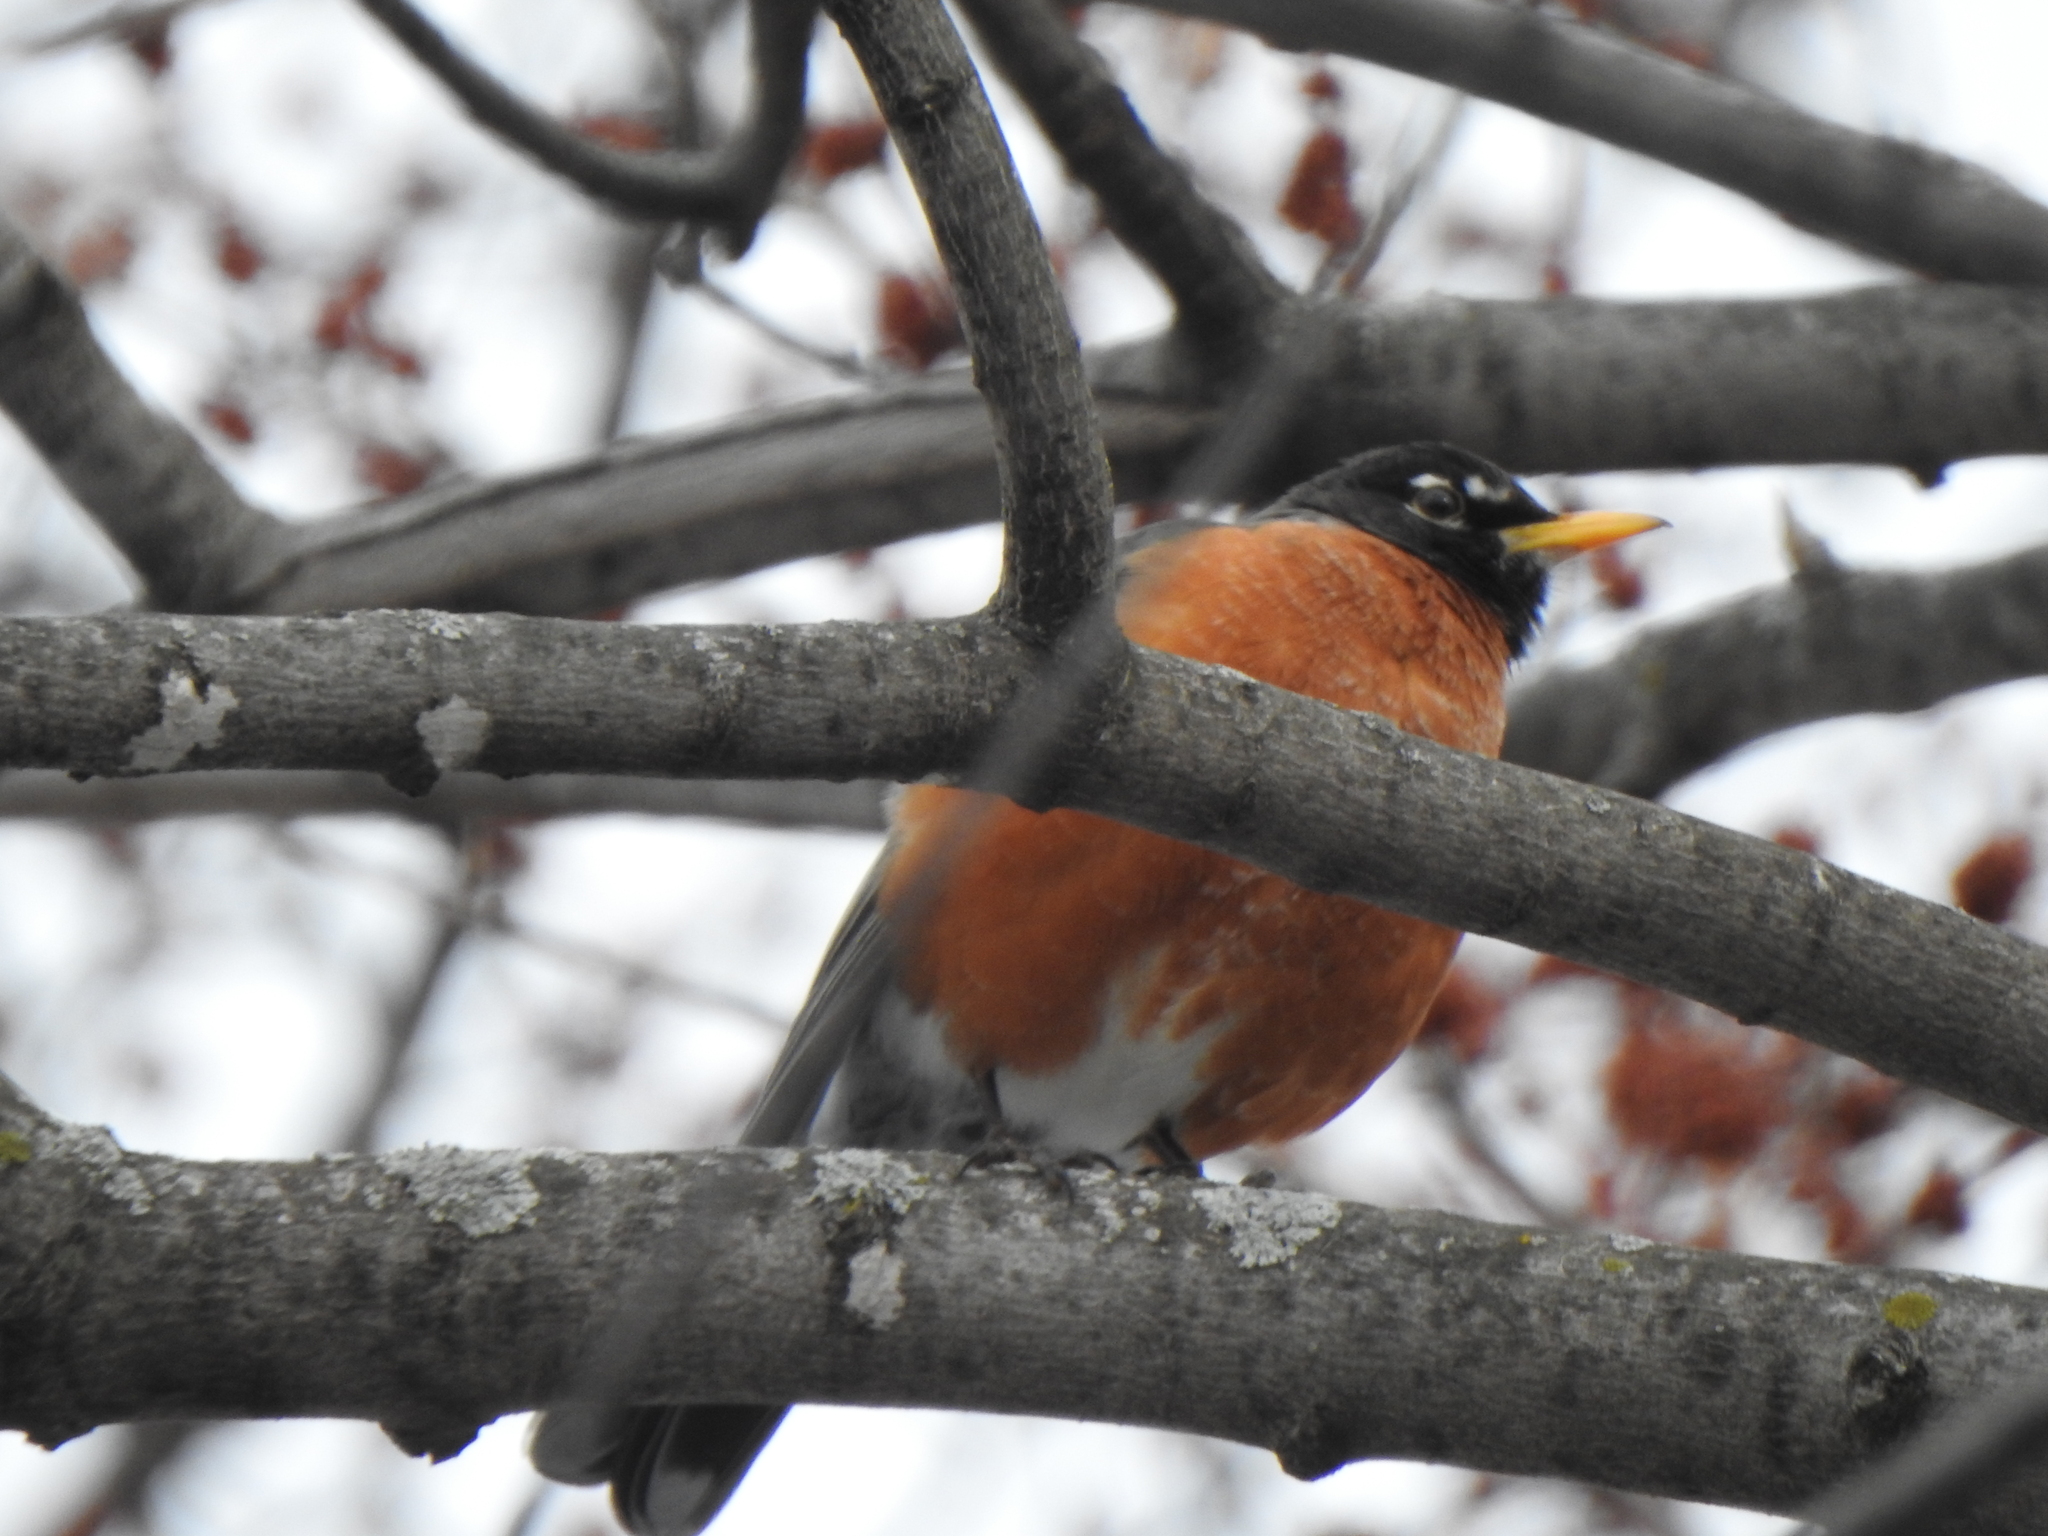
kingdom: Animalia
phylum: Chordata
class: Aves
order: Passeriformes
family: Turdidae
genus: Turdus
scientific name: Turdus migratorius
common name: American robin
